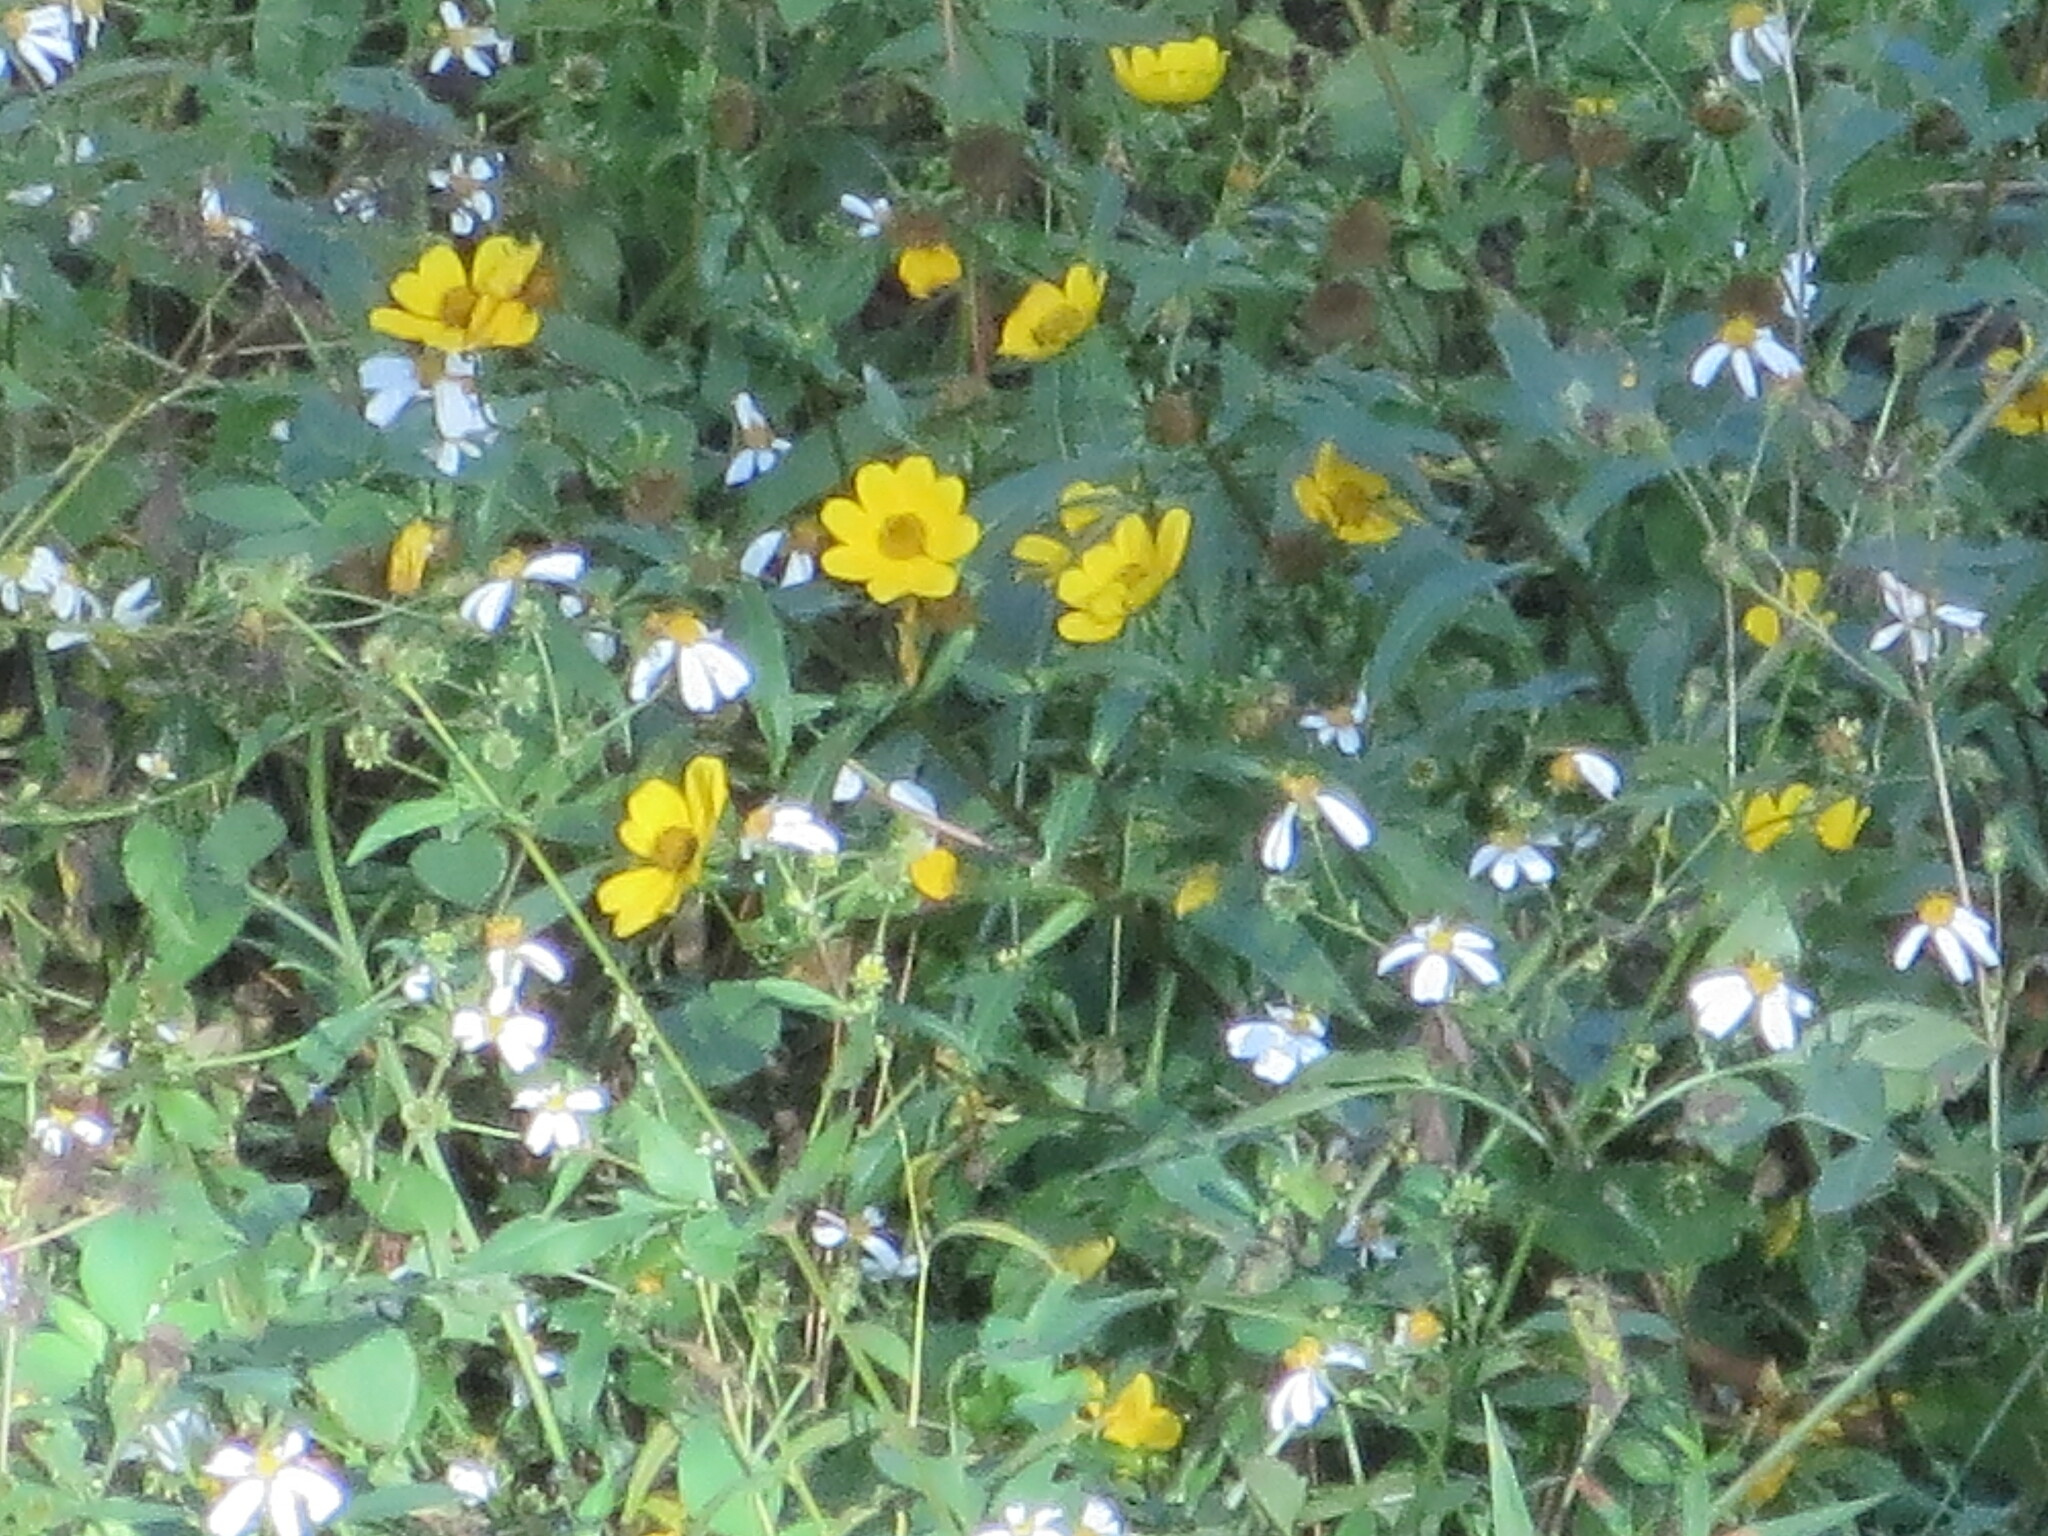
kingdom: Plantae
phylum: Tracheophyta
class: Magnoliopsida
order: Asterales
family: Asteraceae
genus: Bidens
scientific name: Bidens alba
